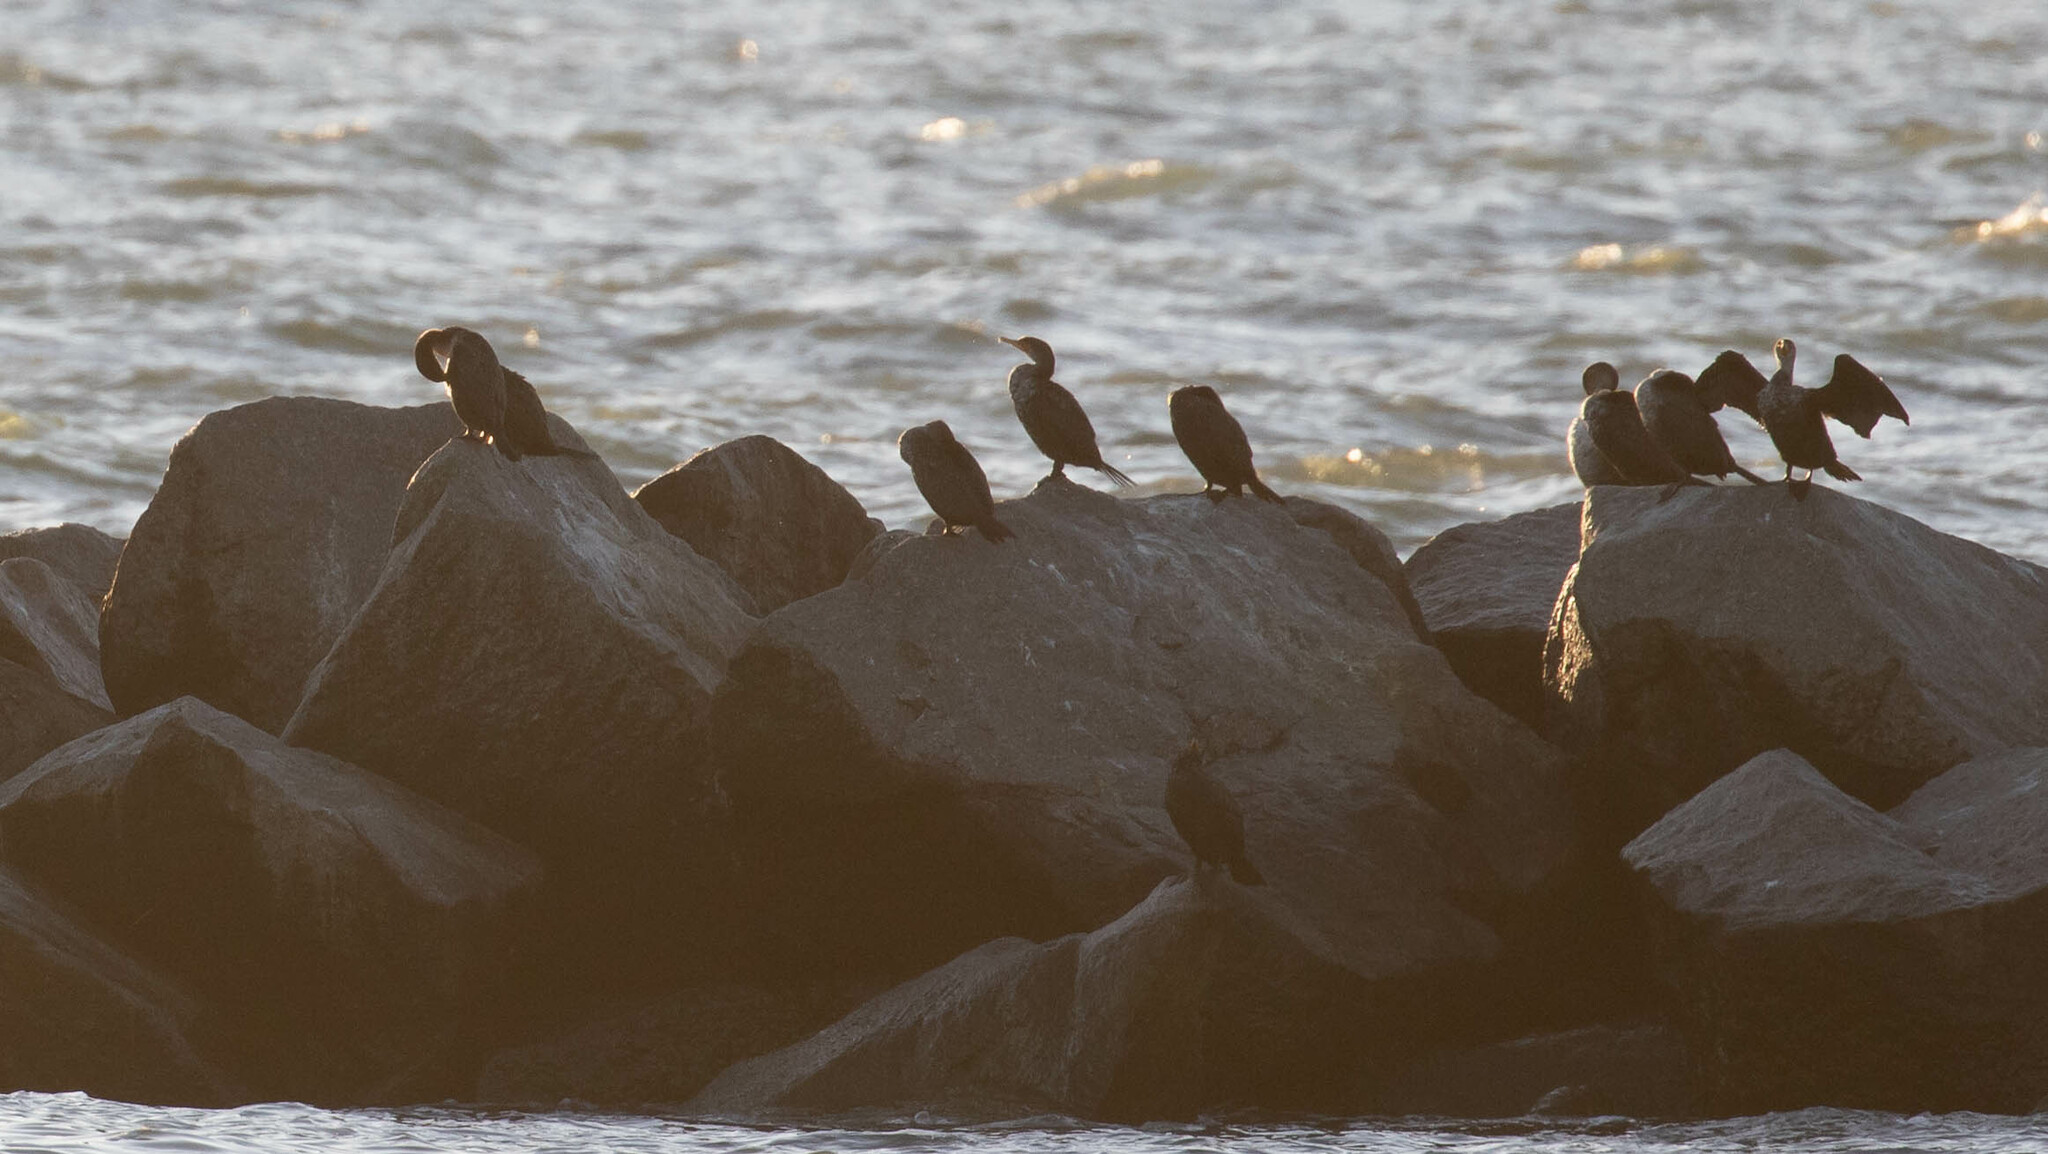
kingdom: Animalia
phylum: Chordata
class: Aves
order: Suliformes
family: Phalacrocoracidae
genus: Phalacrocorax
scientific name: Phalacrocorax auritus
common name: Double-crested cormorant
